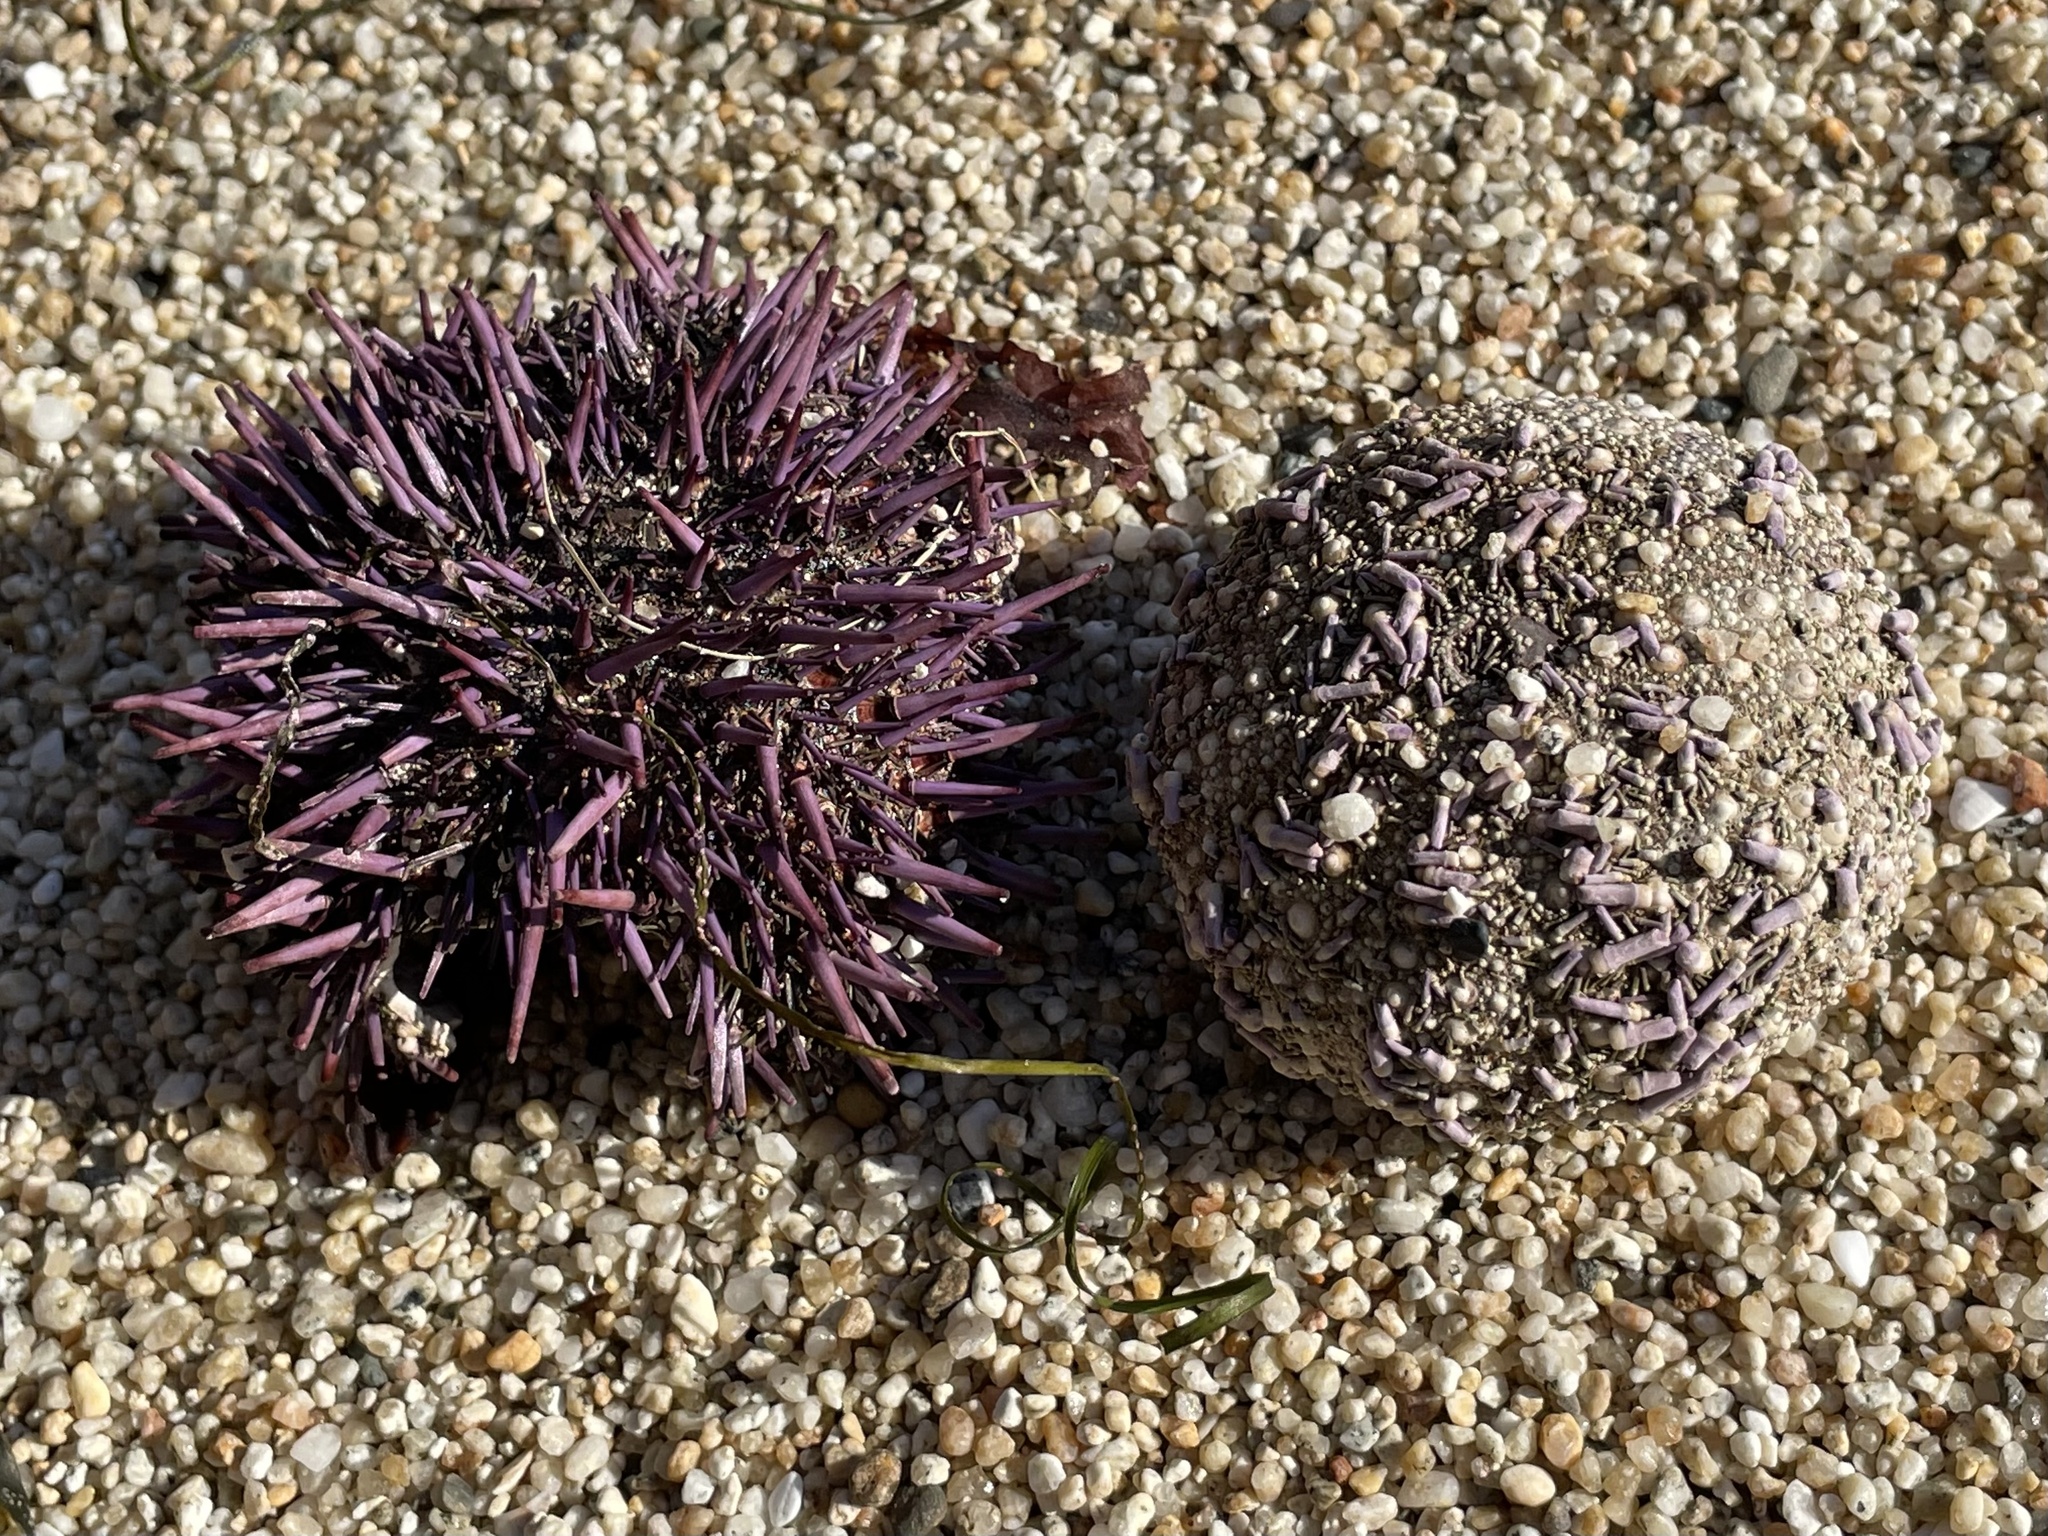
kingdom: Animalia
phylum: Echinodermata
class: Echinoidea
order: Camarodonta
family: Strongylocentrotidae
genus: Strongylocentrotus
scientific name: Strongylocentrotus purpuratus
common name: Purple sea urchin
